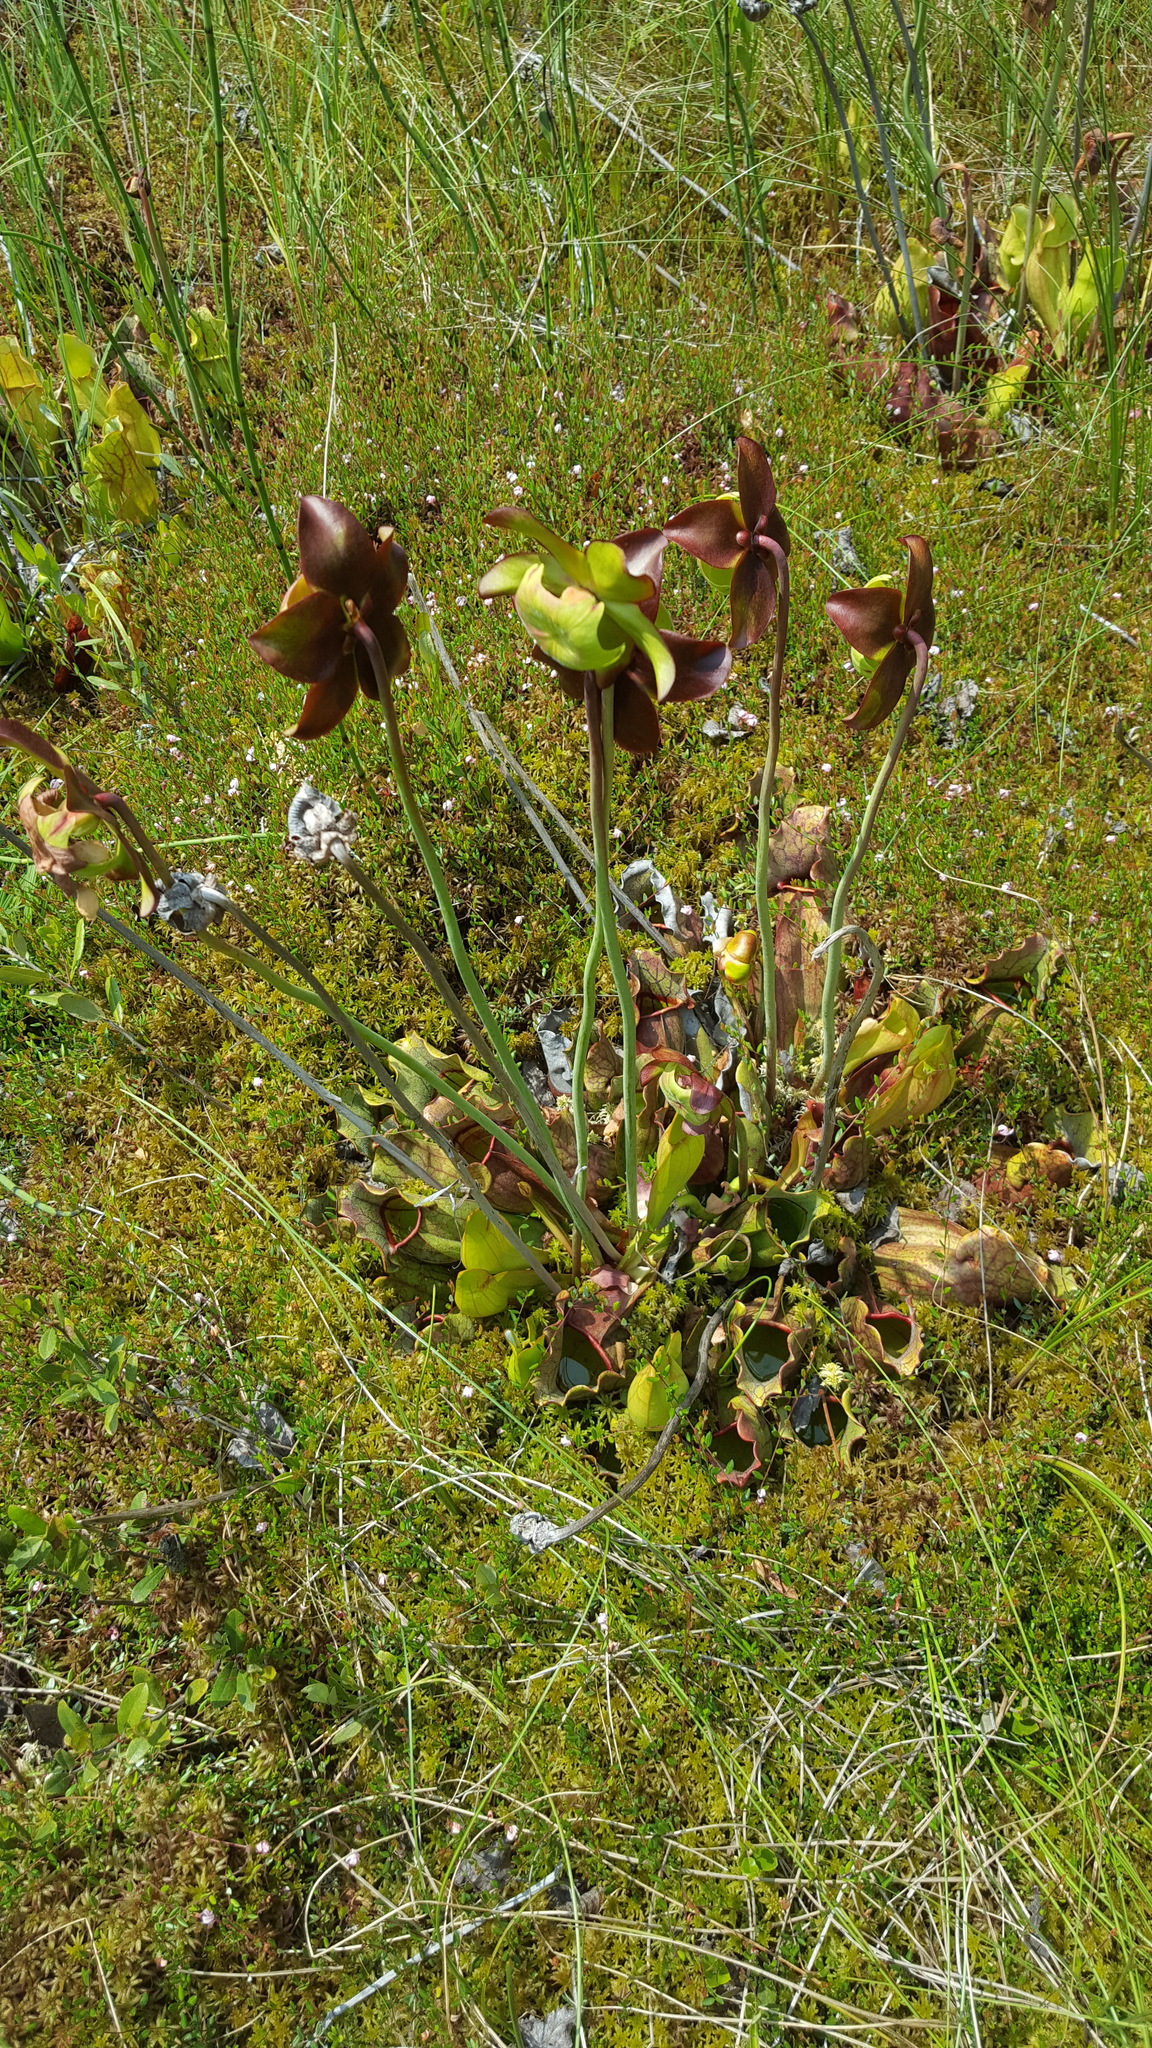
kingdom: Plantae
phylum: Tracheophyta
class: Magnoliopsida
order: Ericales
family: Sarraceniaceae
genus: Sarracenia
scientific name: Sarracenia purpurea
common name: Pitcherplant
